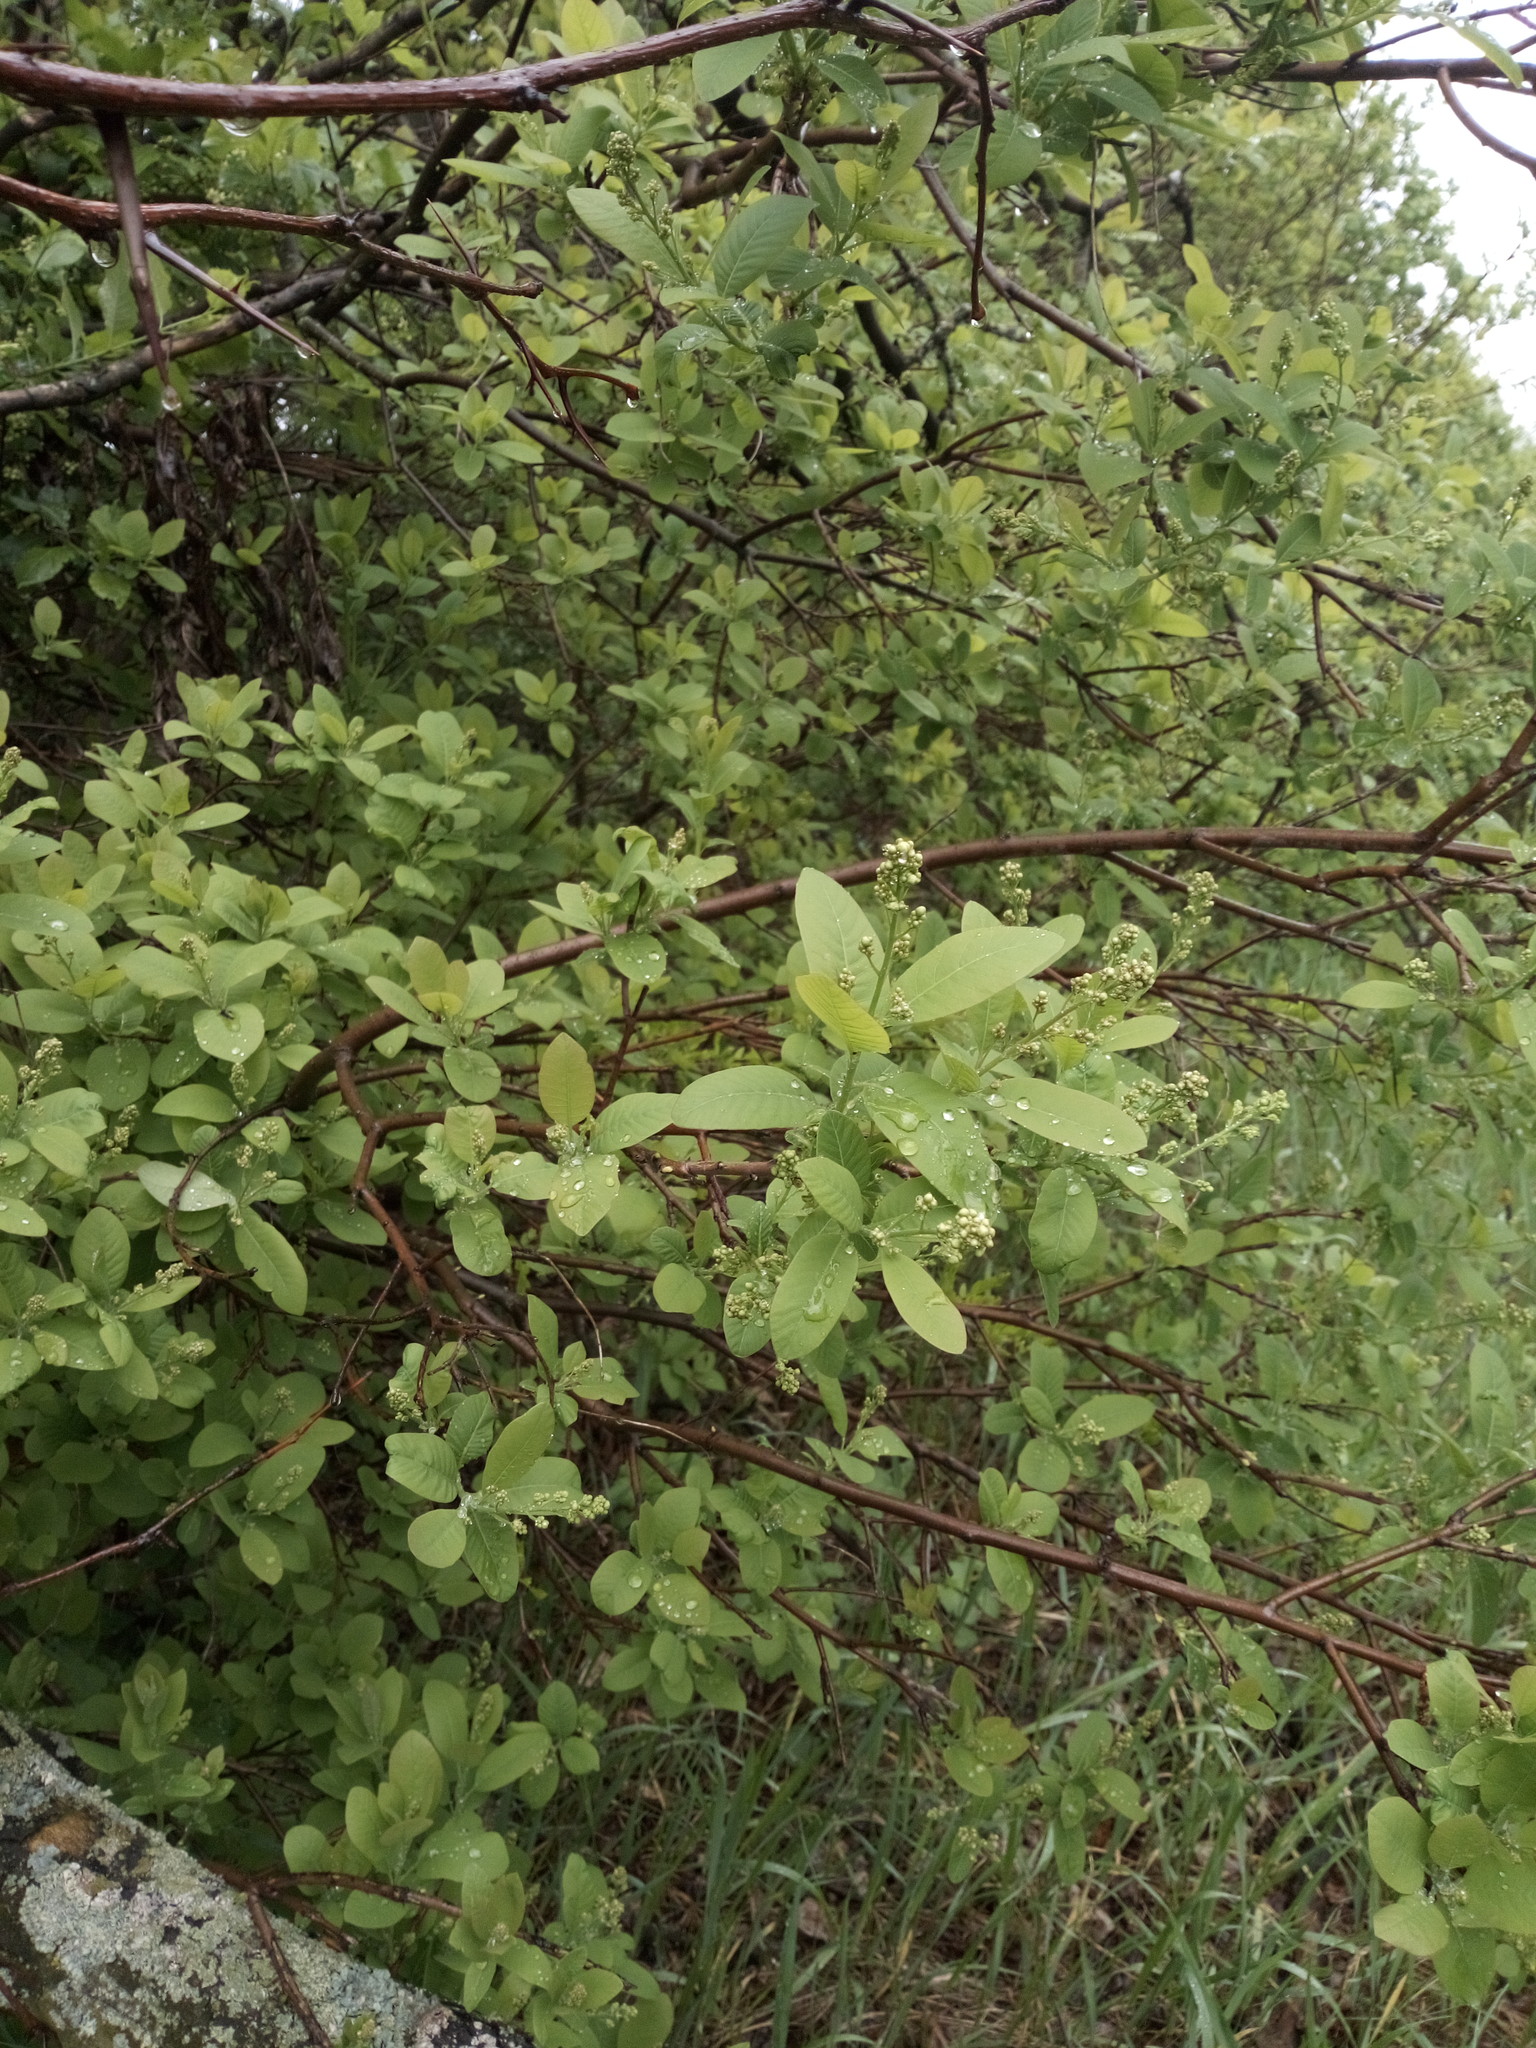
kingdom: Plantae
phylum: Tracheophyta
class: Magnoliopsida
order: Sapindales
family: Anacardiaceae
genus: Cotinus
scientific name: Cotinus coggygria
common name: Smoke-tree
